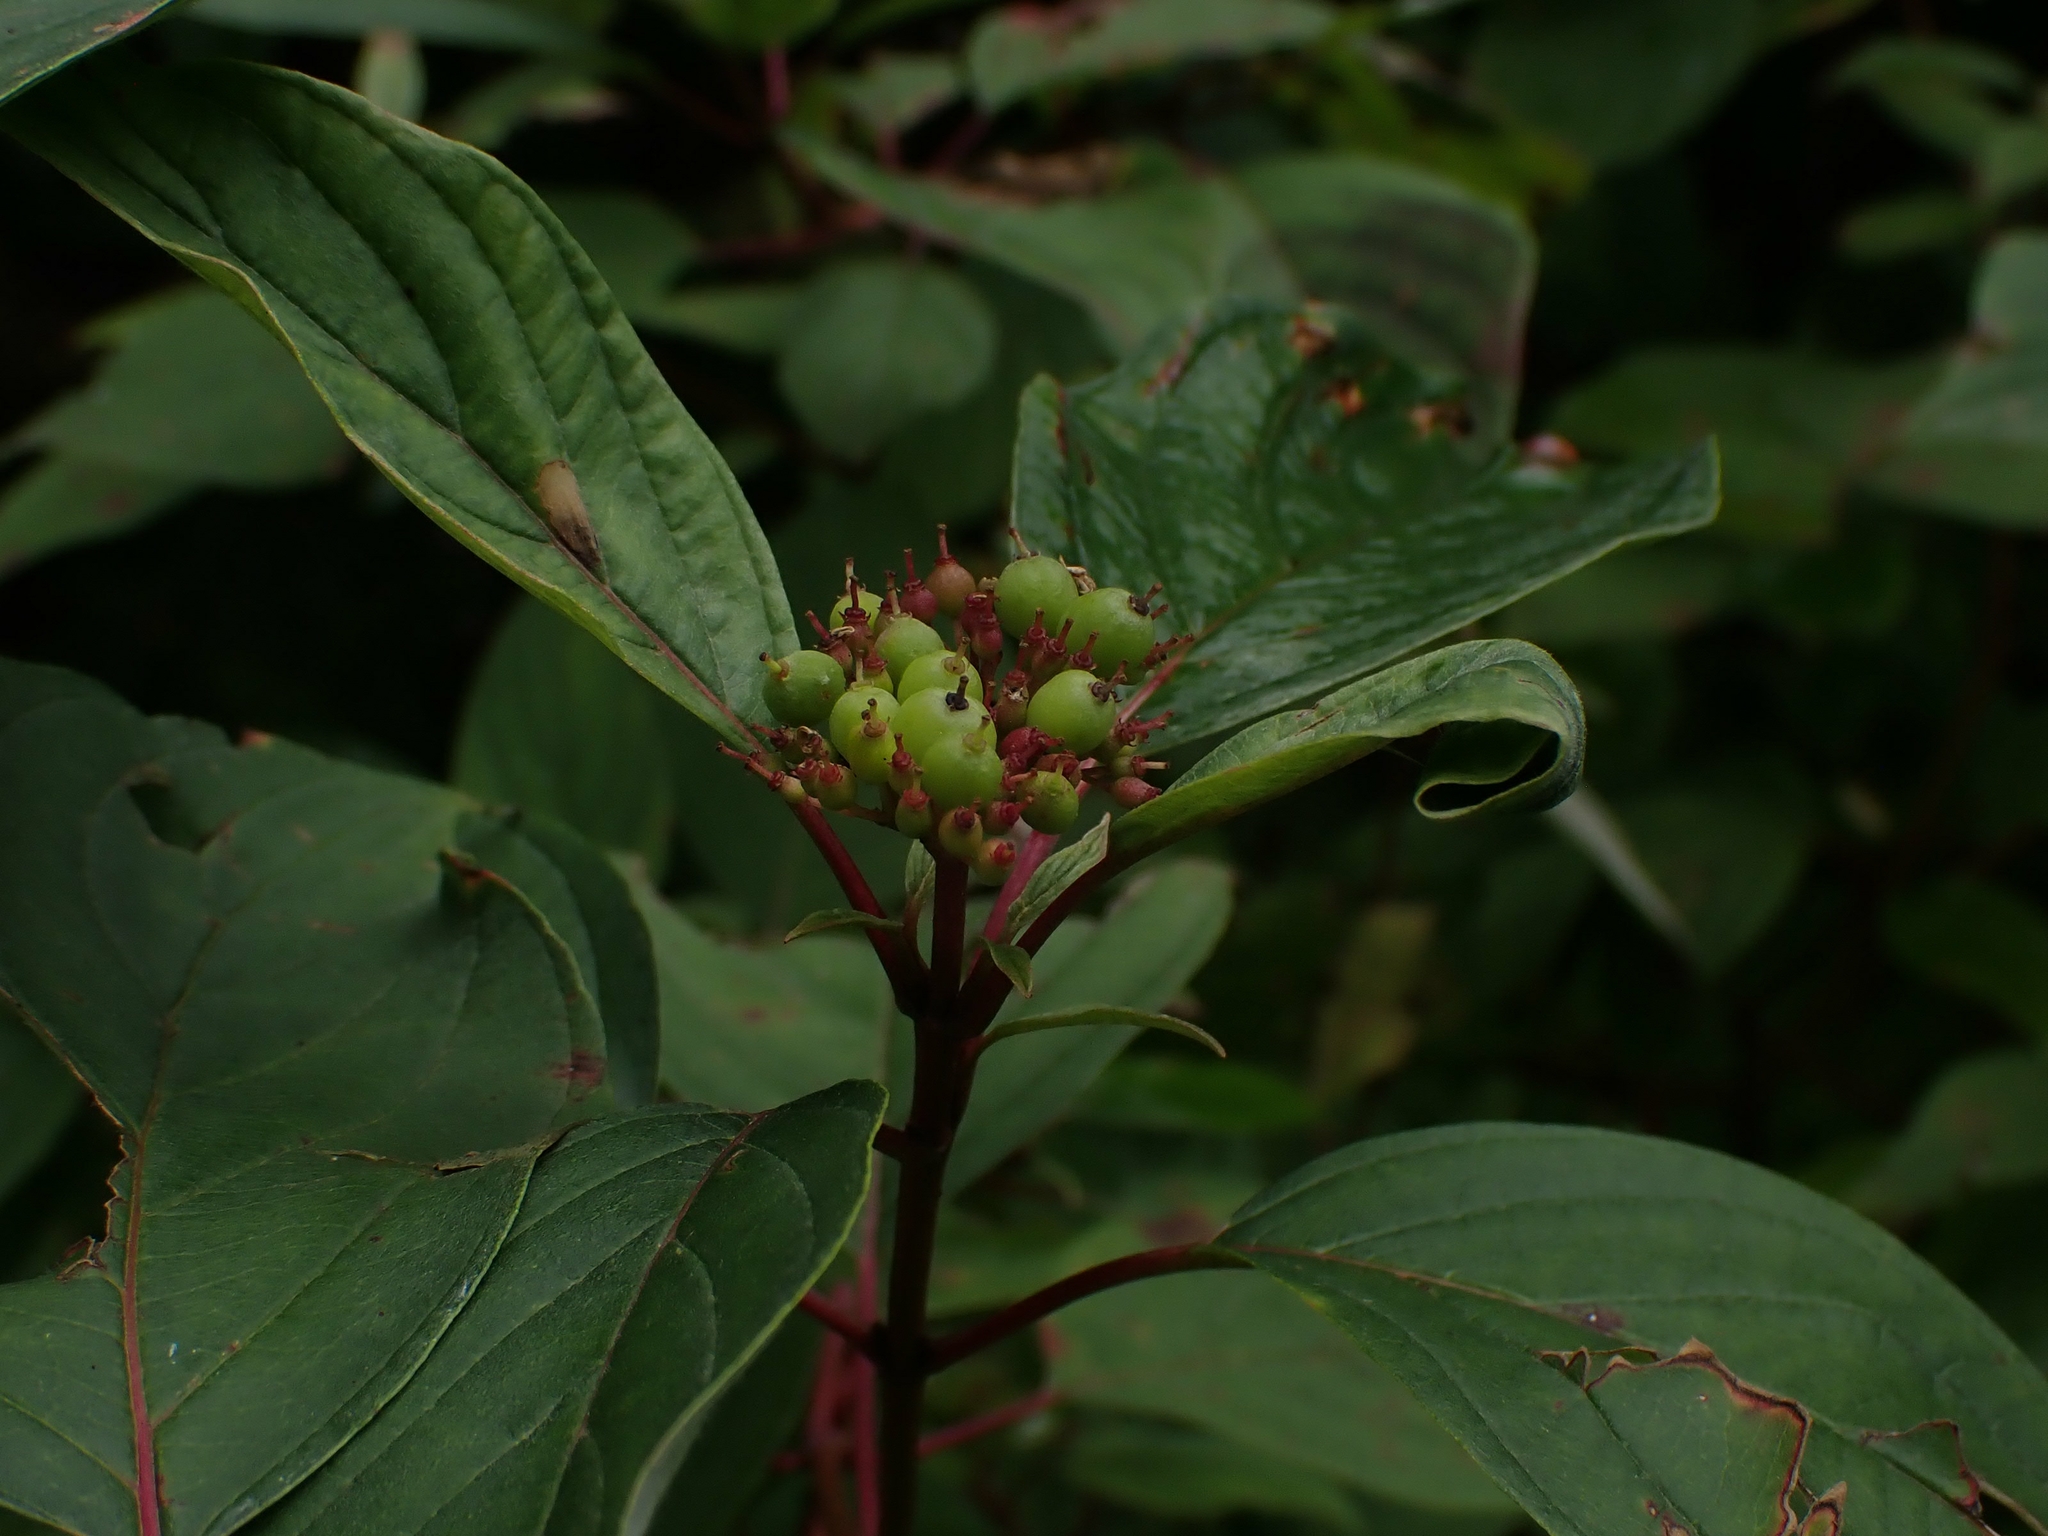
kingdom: Plantae
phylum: Tracheophyta
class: Magnoliopsida
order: Cornales
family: Cornaceae
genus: Cornus
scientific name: Cornus sericea
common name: Red-osier dogwood
